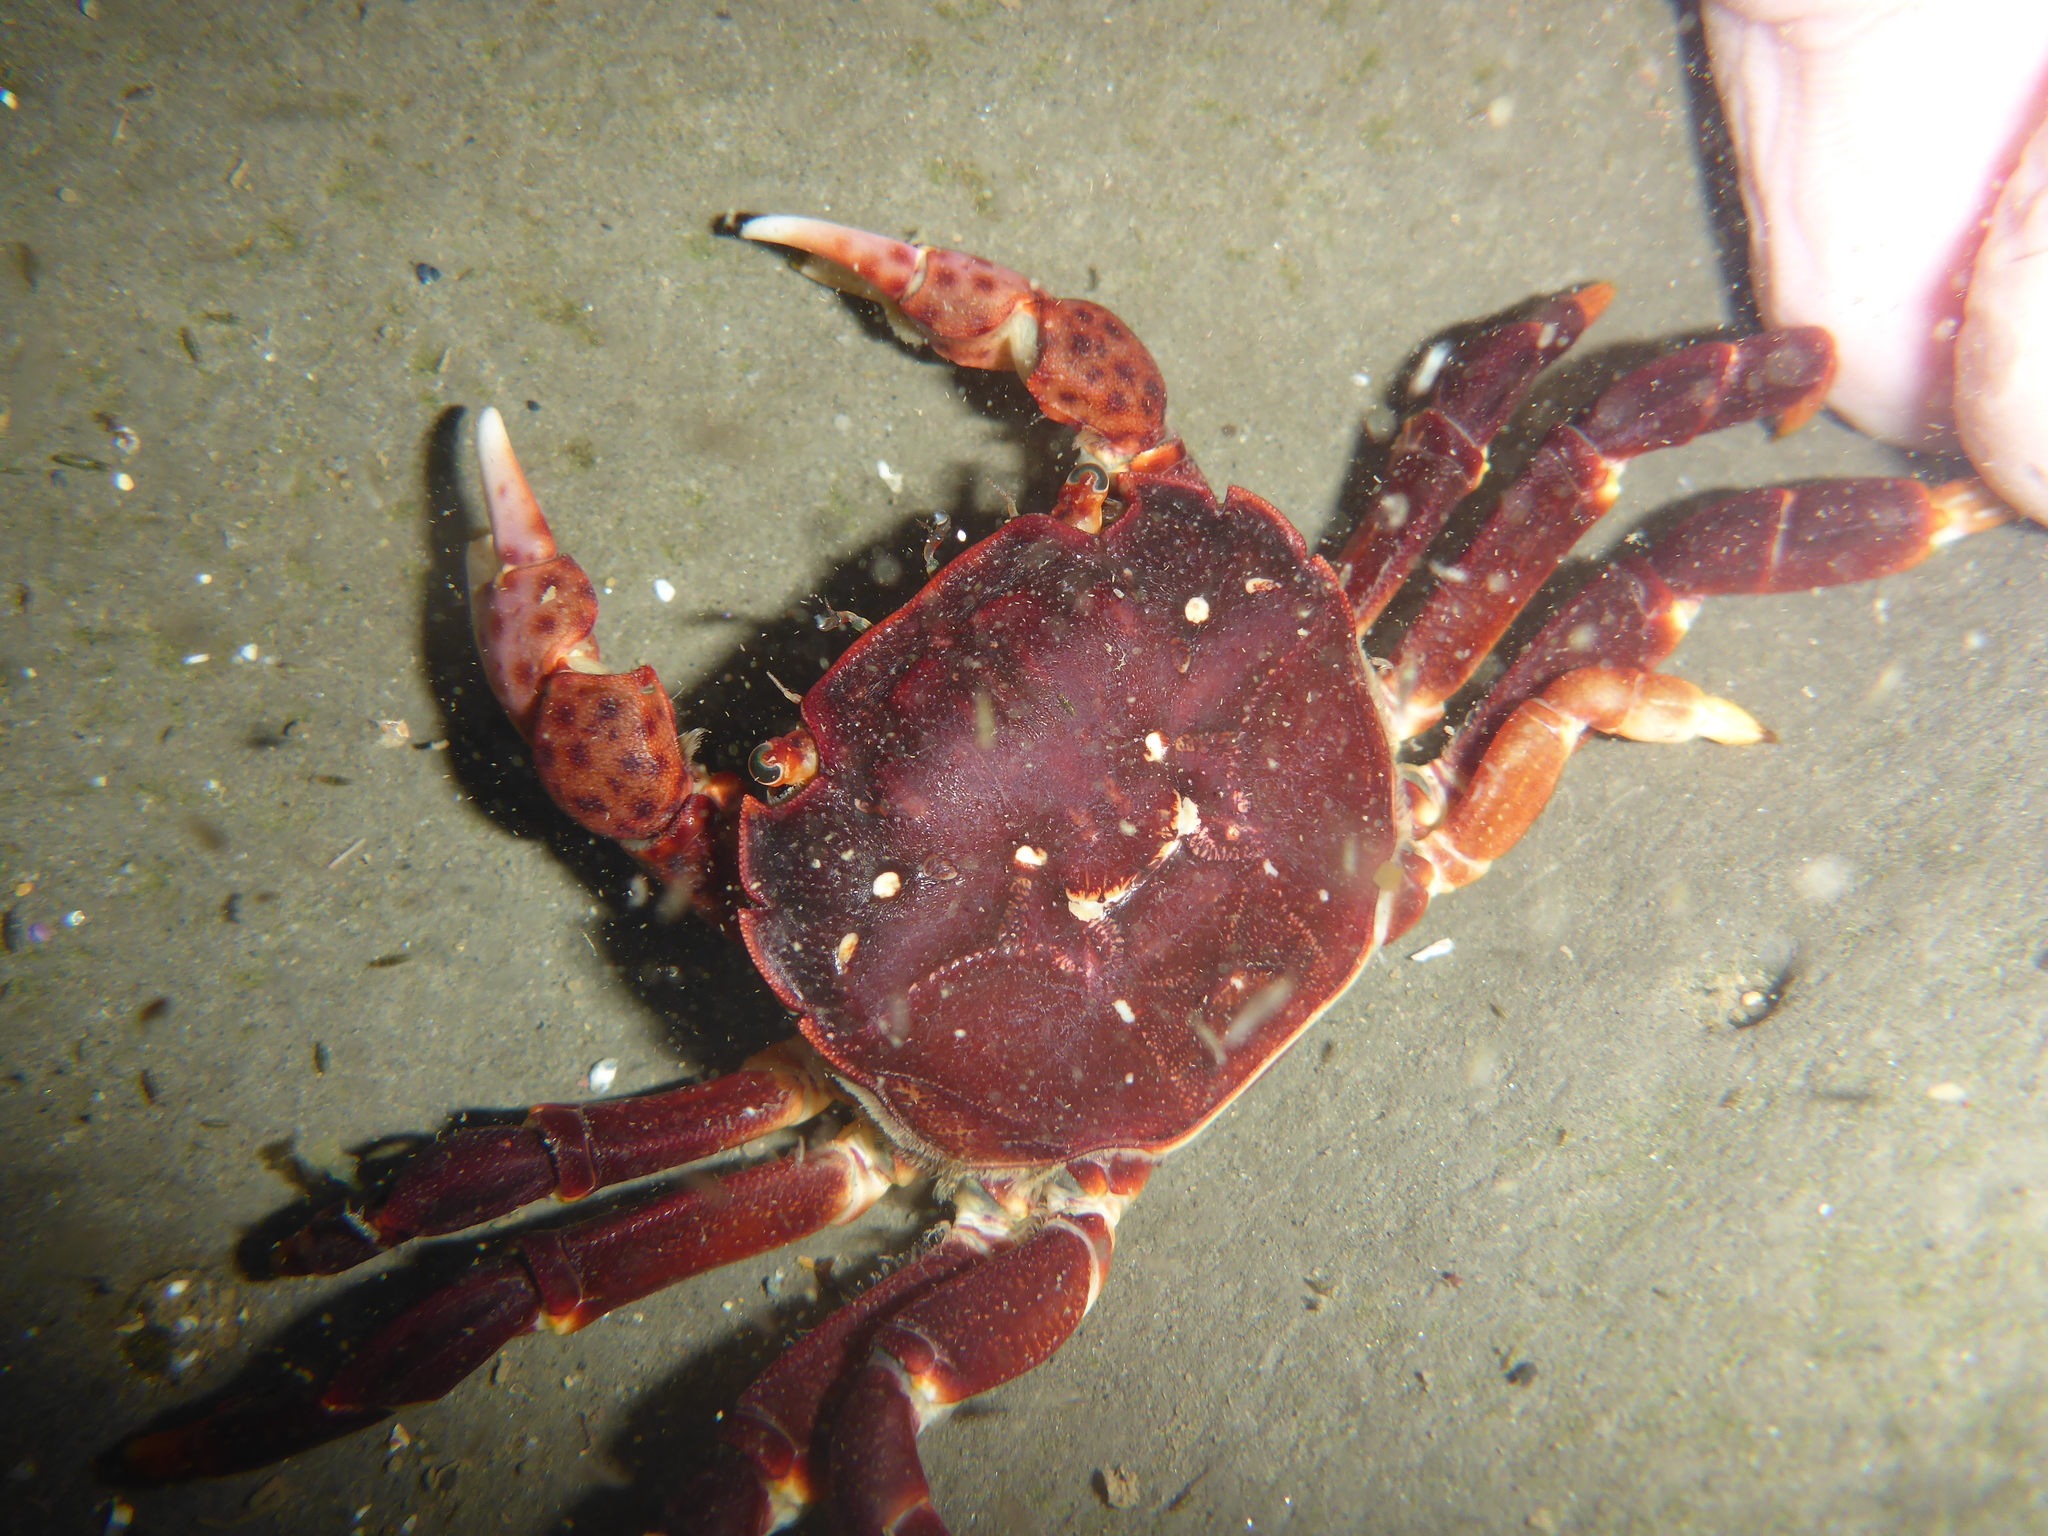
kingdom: Animalia
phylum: Arthropoda
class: Malacostraca
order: Decapoda
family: Varunidae
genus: Hemigrapsus
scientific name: Hemigrapsus nudus
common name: Purple shore crab
